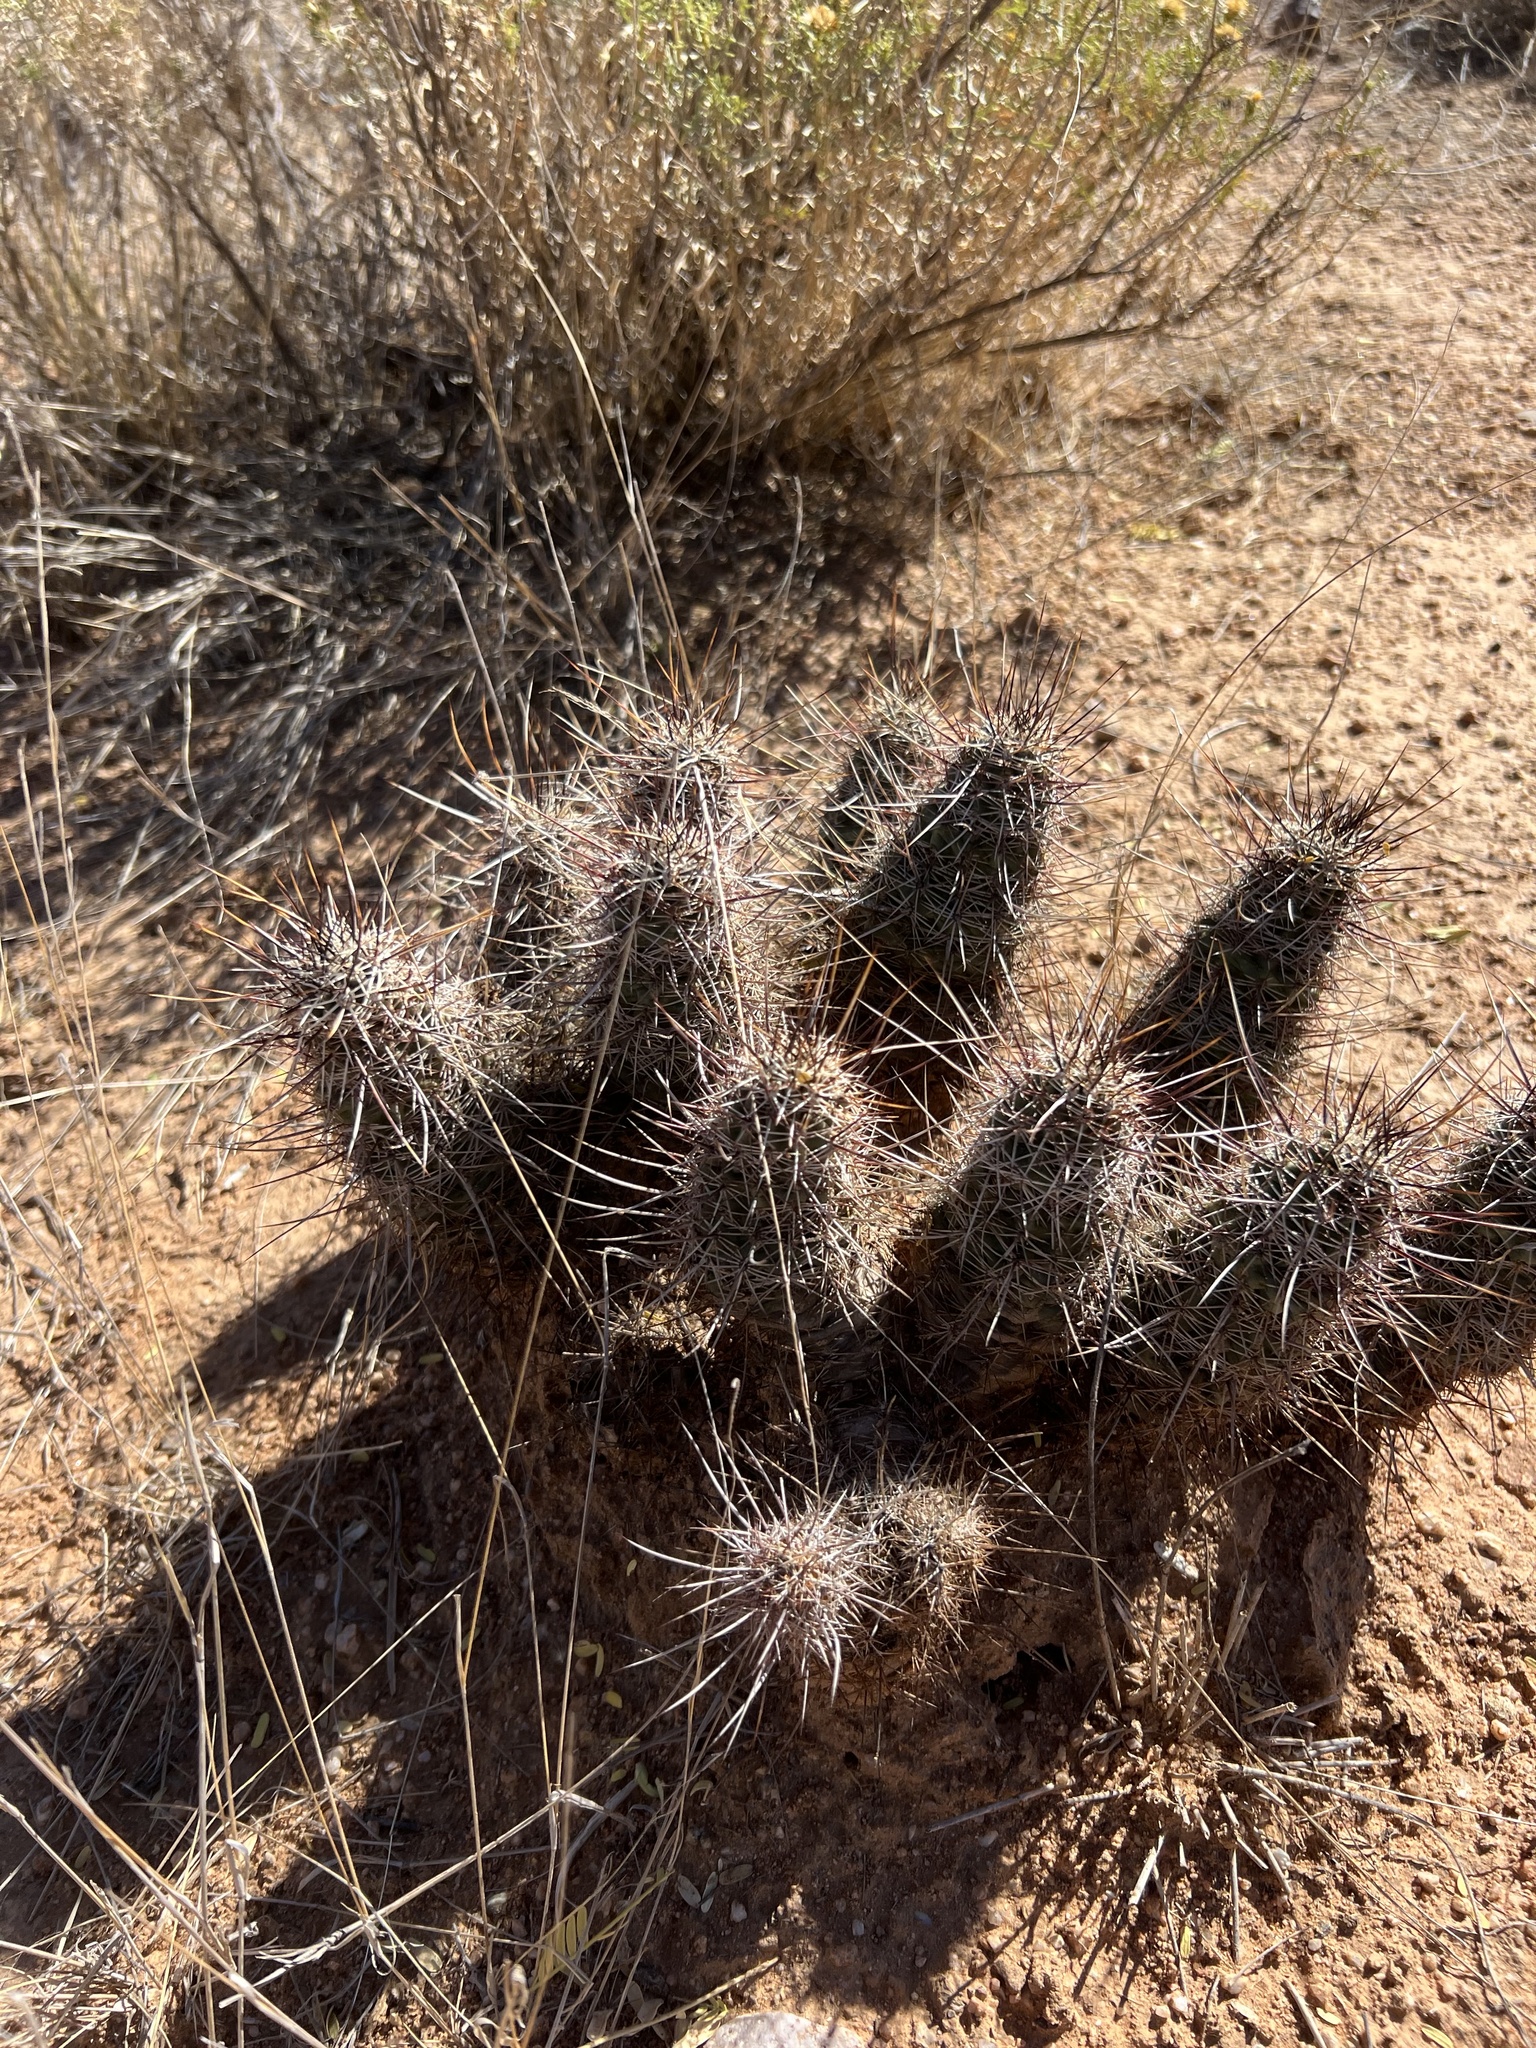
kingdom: Plantae
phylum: Tracheophyta
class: Magnoliopsida
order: Caryophyllales
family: Cactaceae
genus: Echinocereus
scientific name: Echinocereus fasciculatus
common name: Bundle hedgehog
